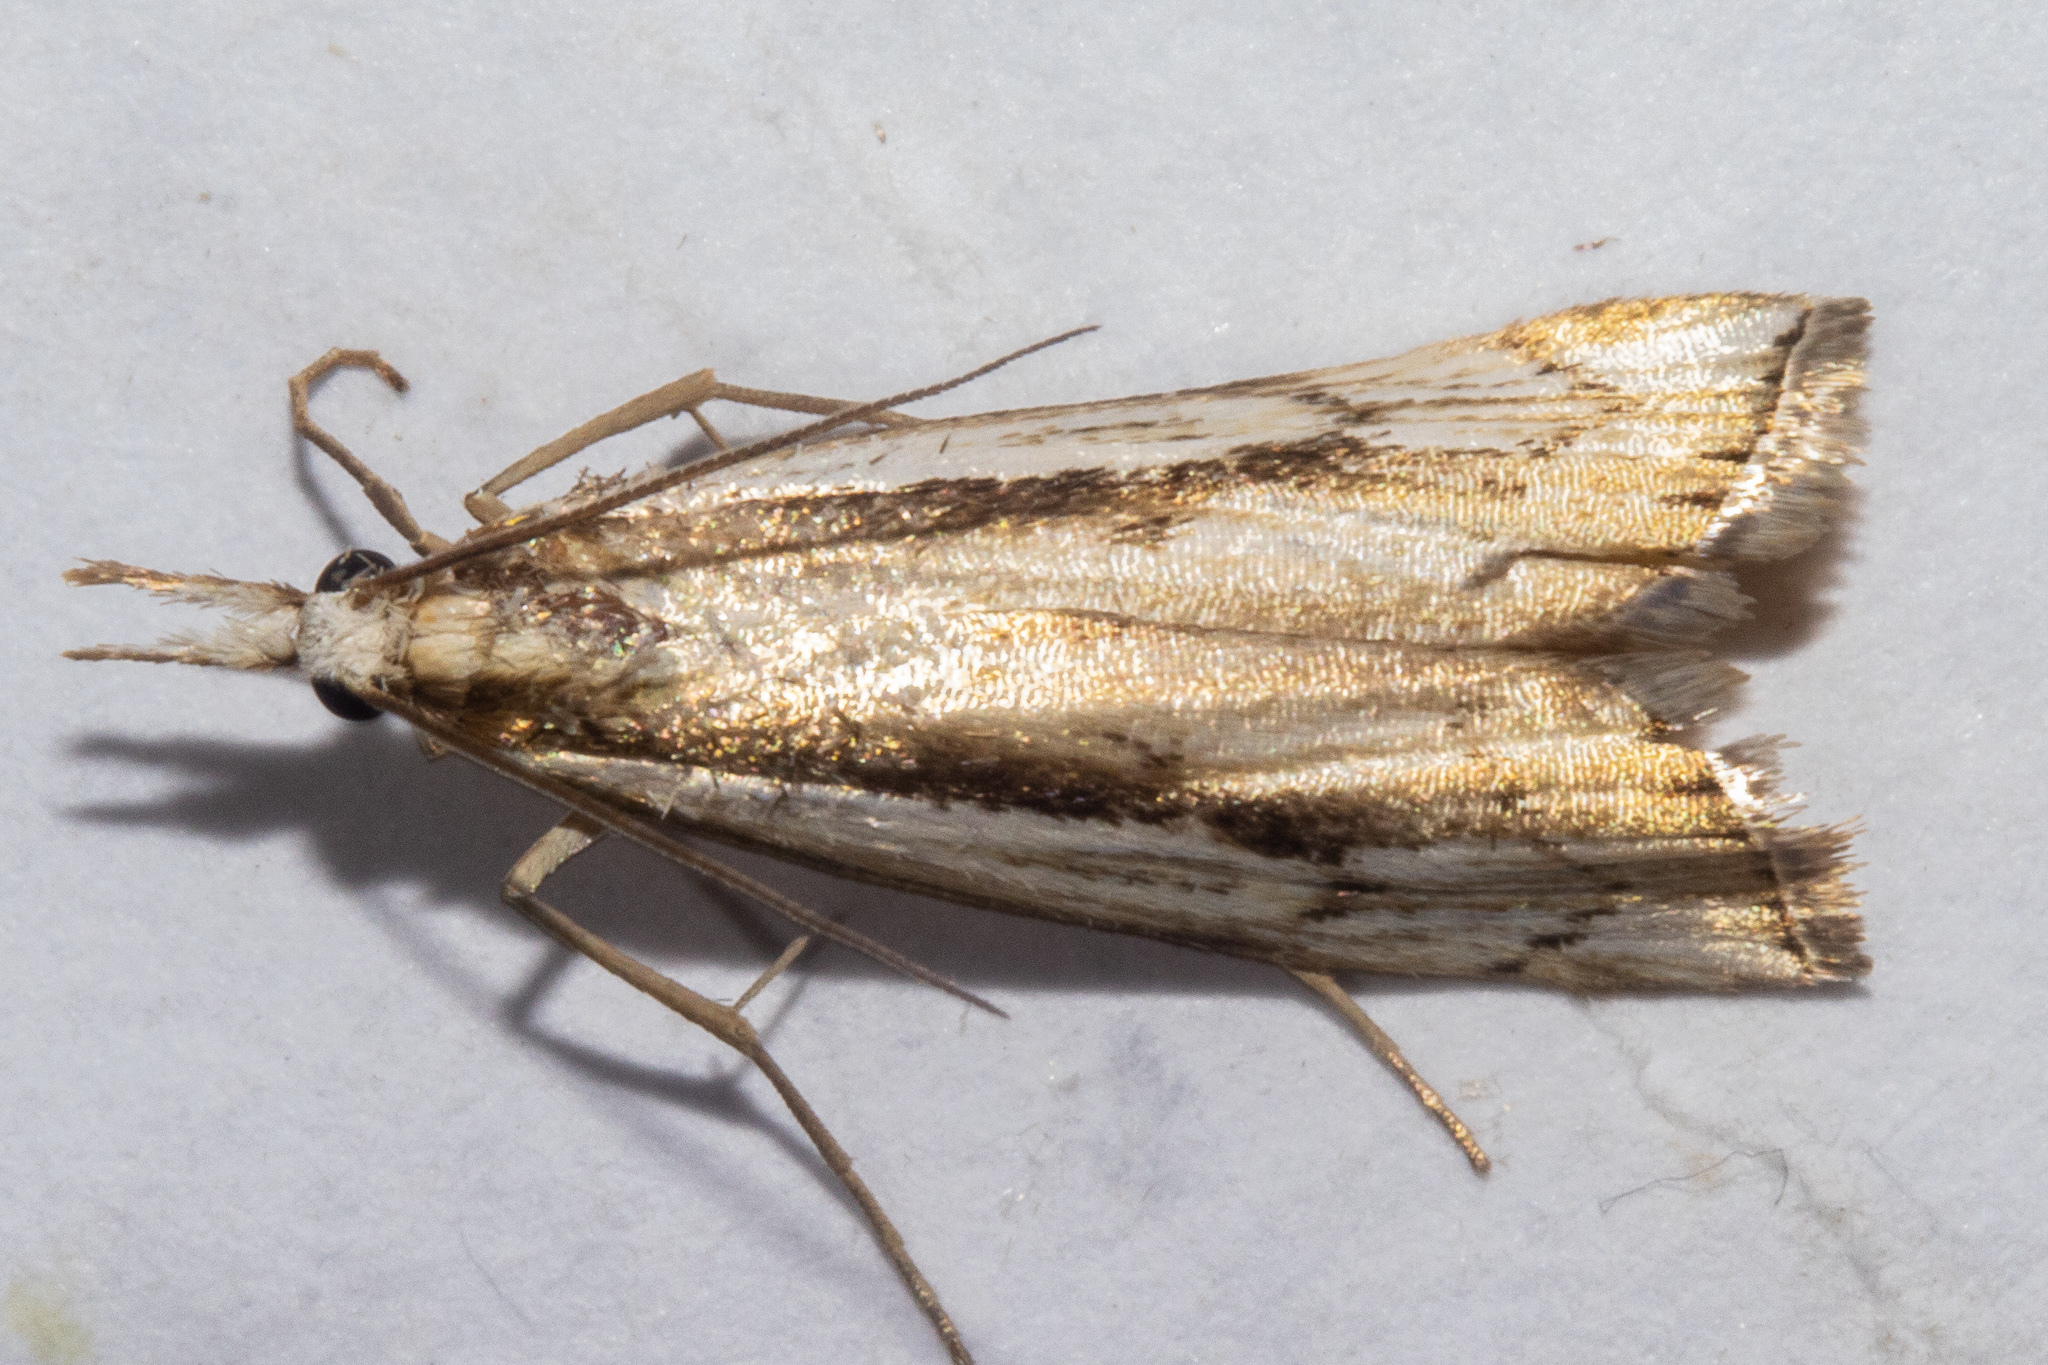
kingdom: Animalia
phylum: Arthropoda
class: Insecta
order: Lepidoptera
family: Crambidae
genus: Orocrambus
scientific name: Orocrambus ramosellus
